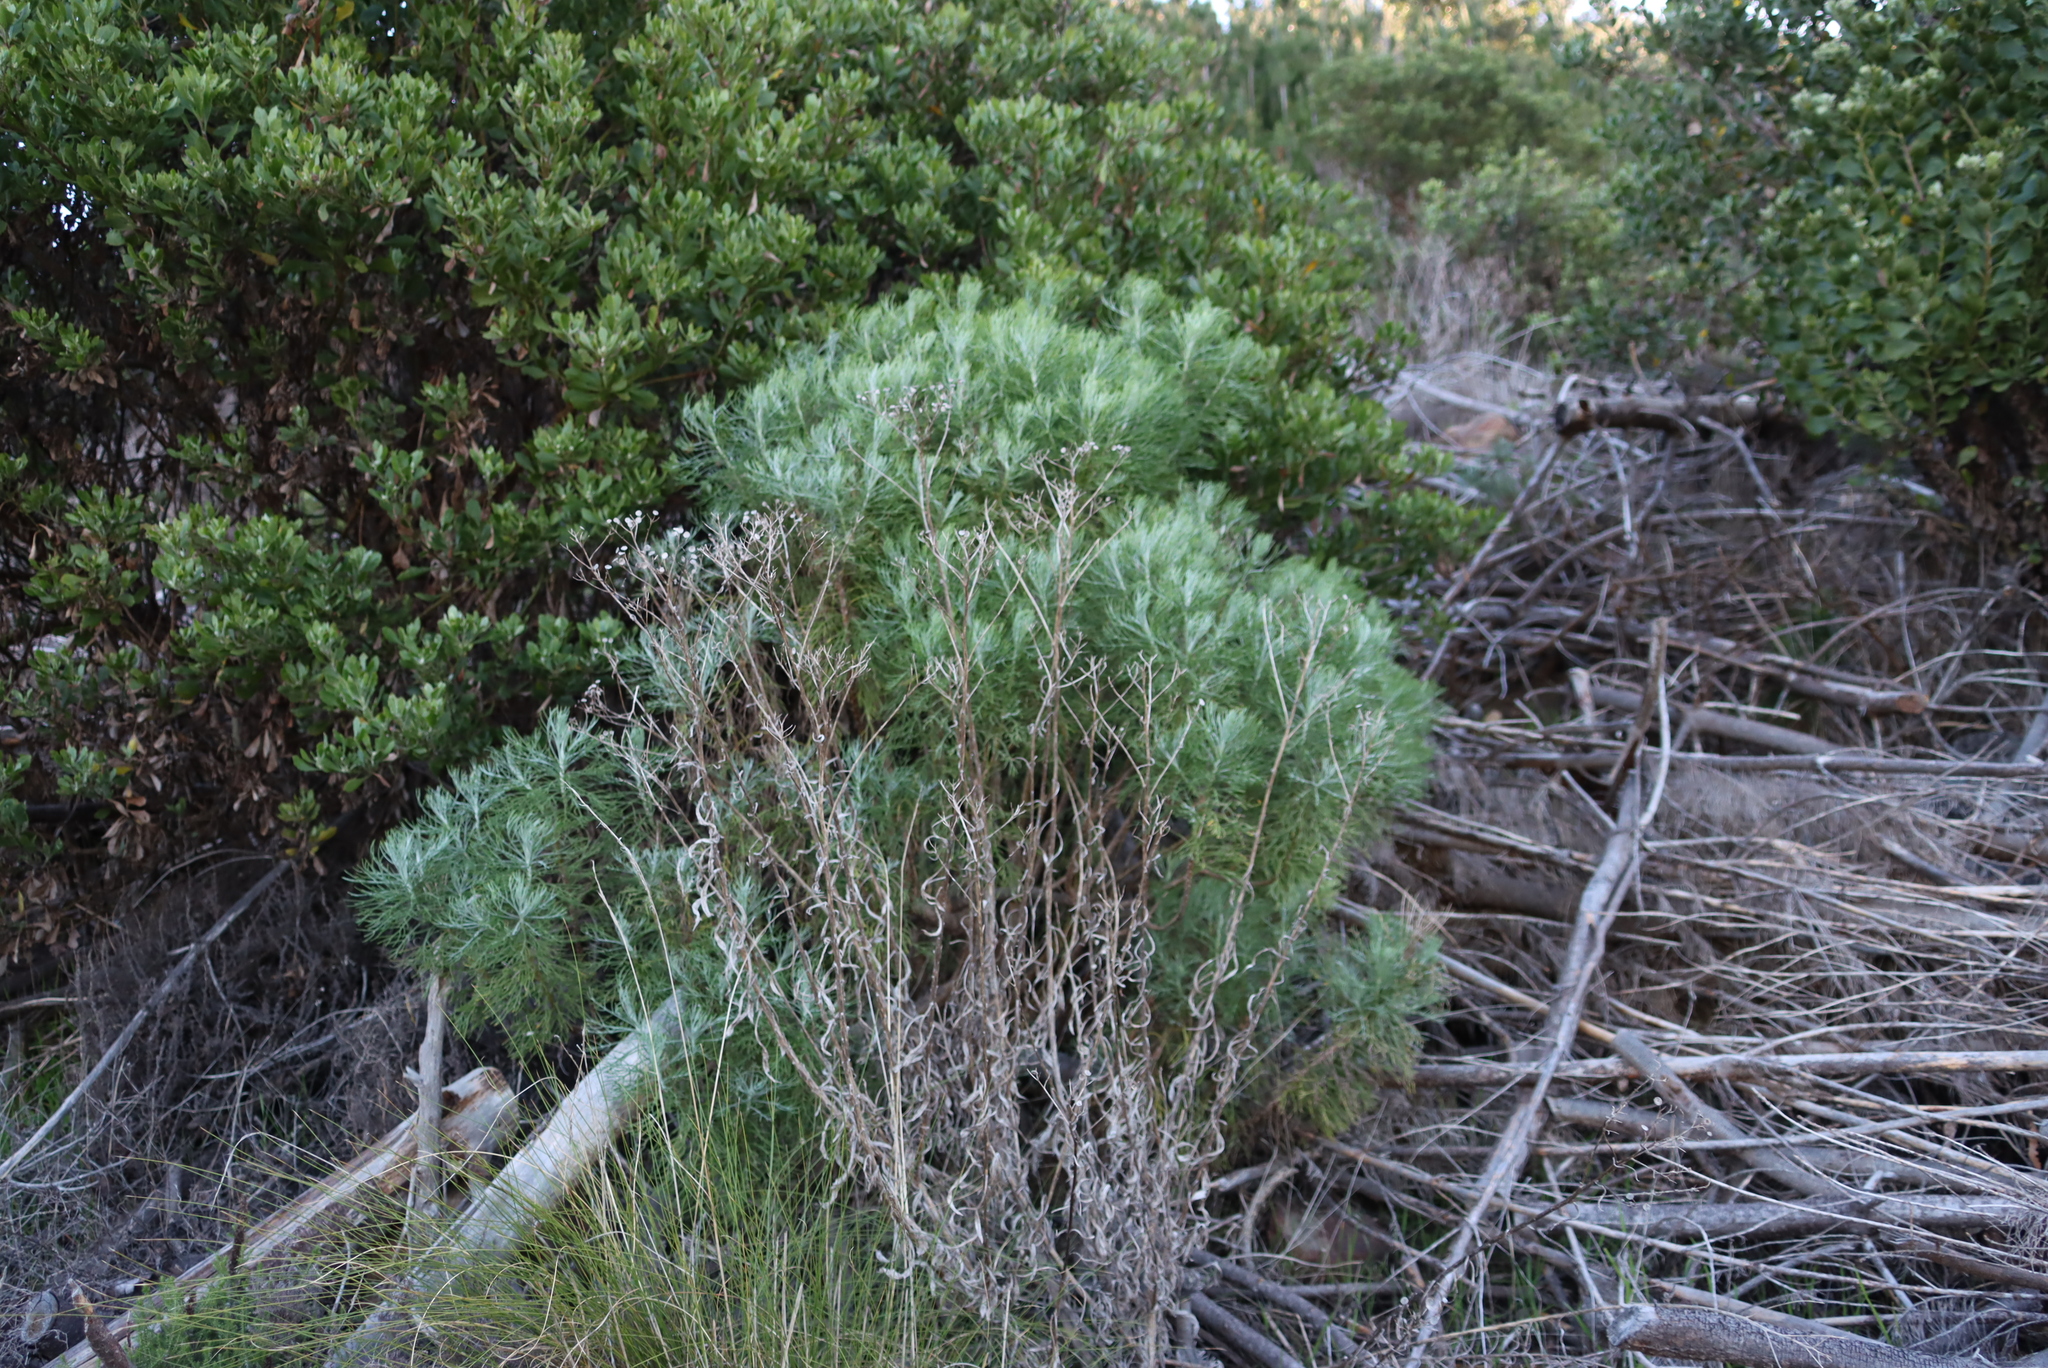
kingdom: Plantae
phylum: Tracheophyta
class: Magnoliopsida
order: Asterales
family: Asteraceae
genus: Athanasia
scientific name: Athanasia crithmifolia
